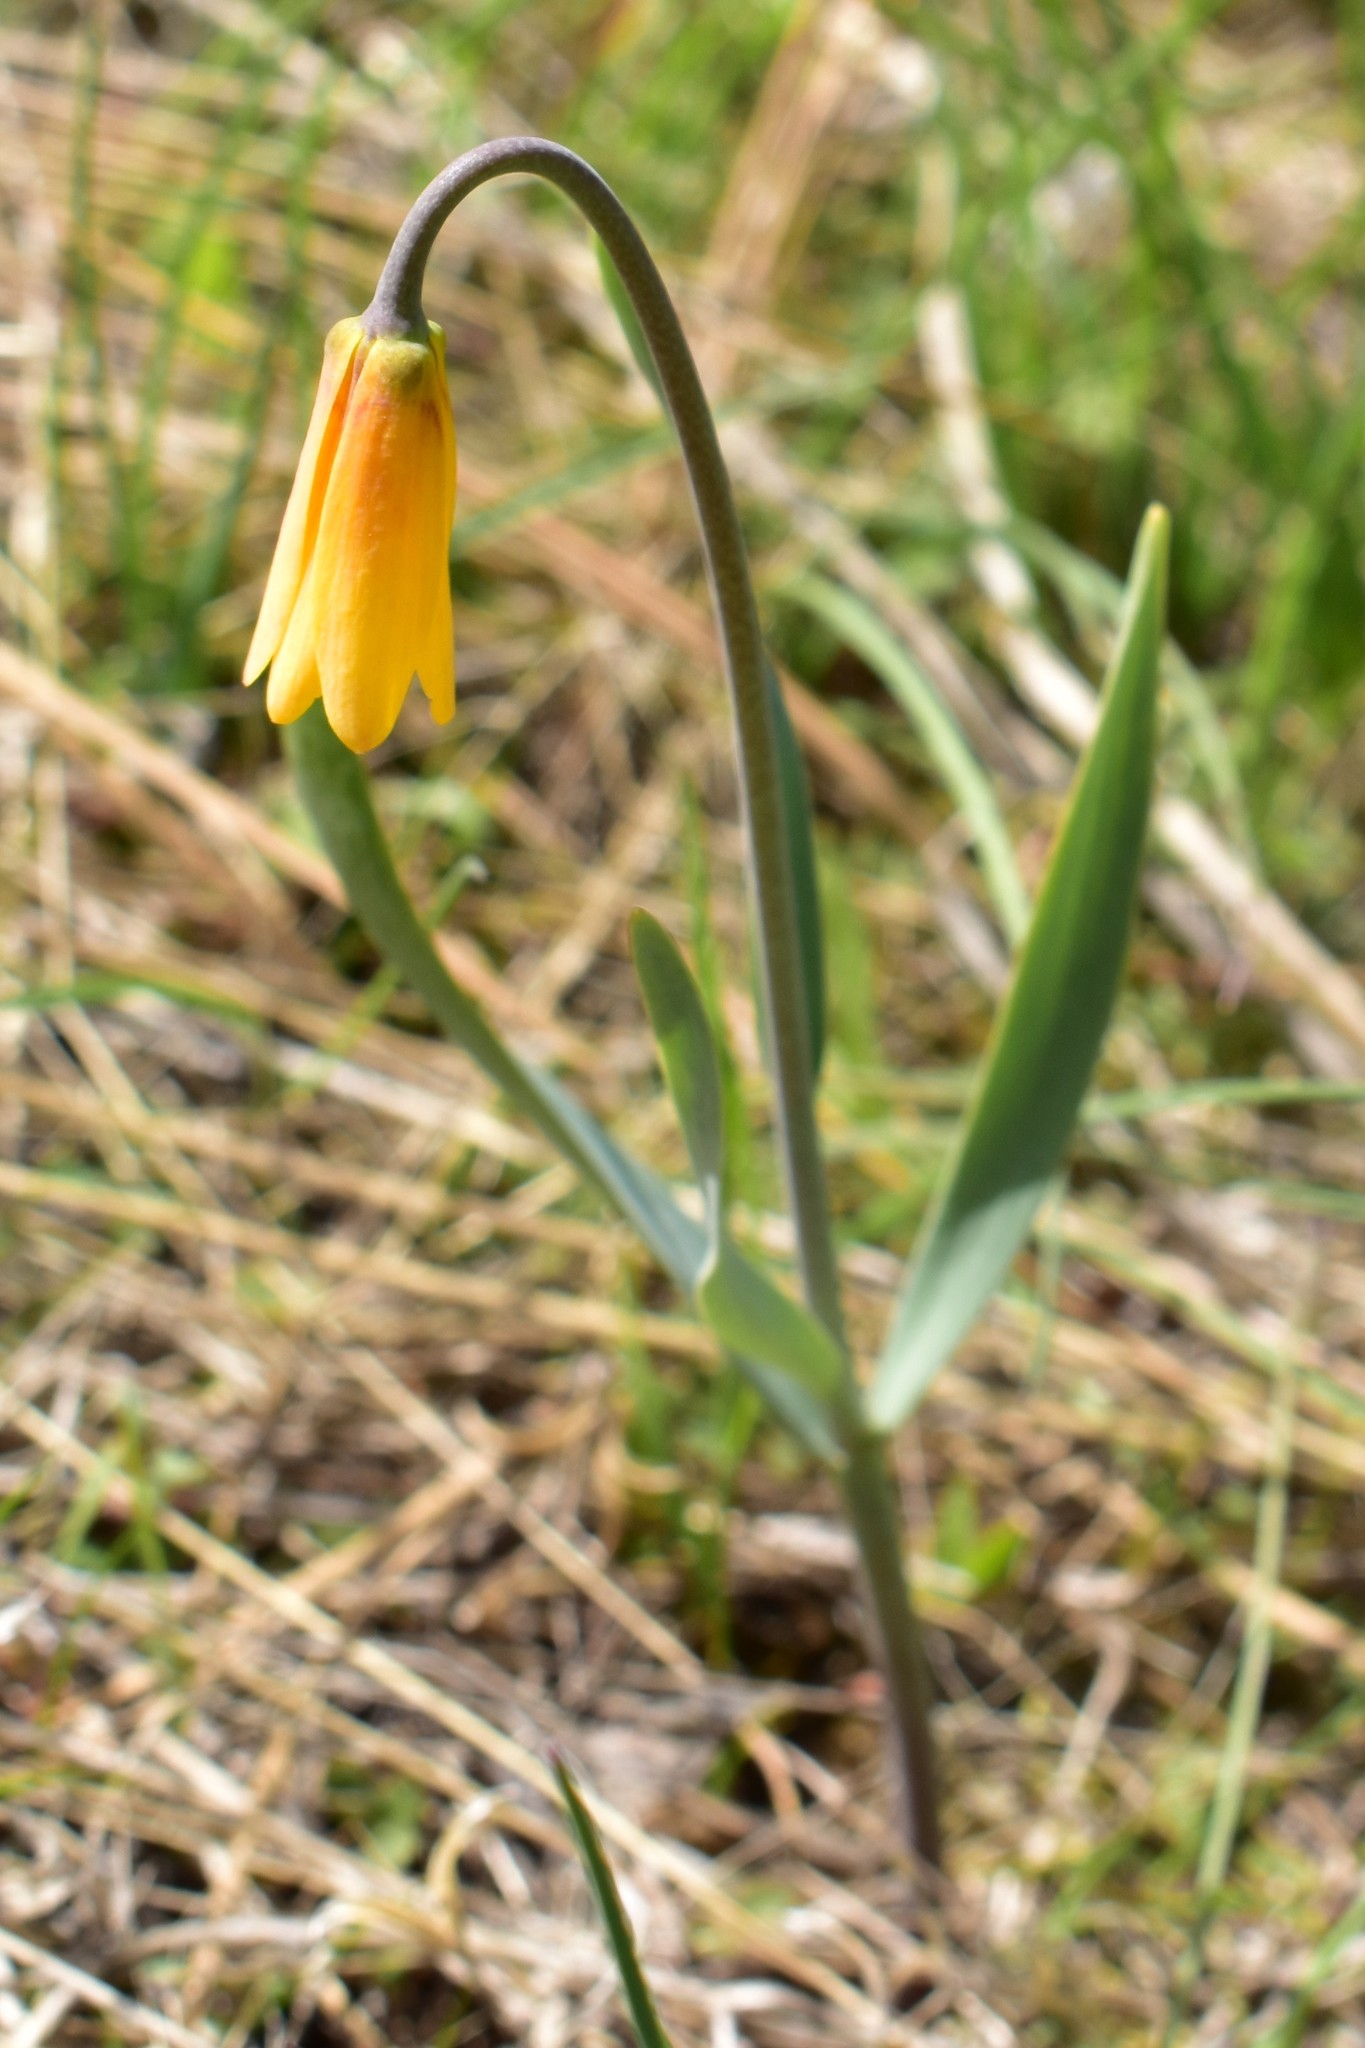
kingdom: Plantae
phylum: Tracheophyta
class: Liliopsida
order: Liliales
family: Liliaceae
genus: Fritillaria
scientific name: Fritillaria pudica
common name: Yellow fritillary
